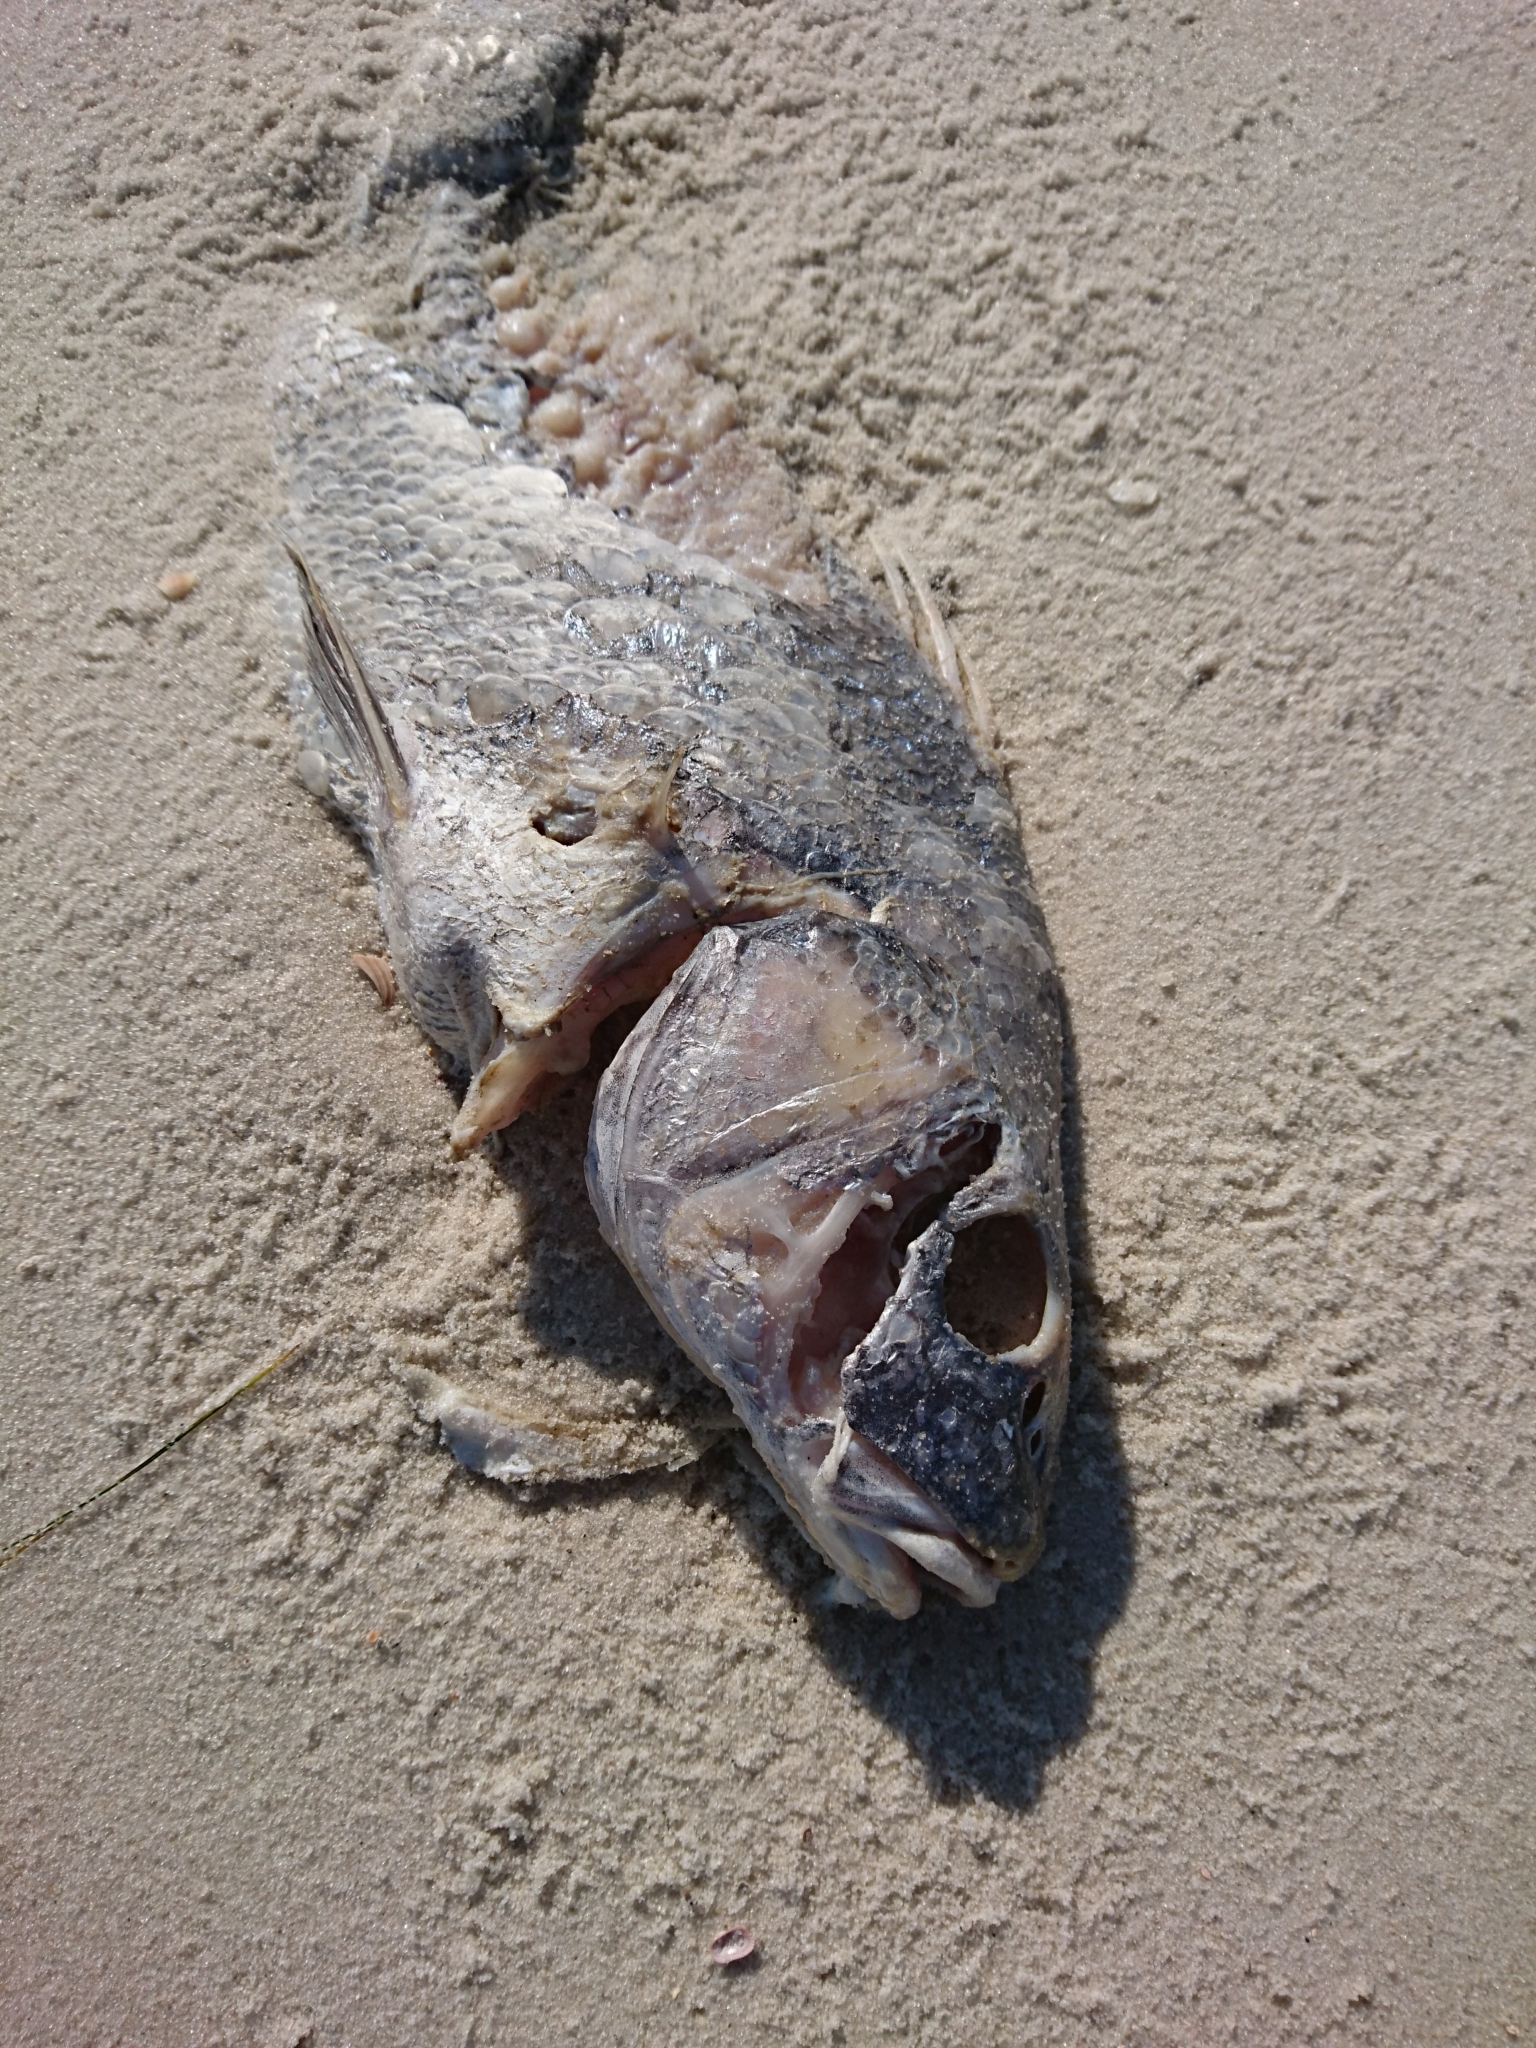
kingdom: Animalia
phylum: Chordata
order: Perciformes
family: Sciaenidae
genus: Sciaenops
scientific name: Sciaenops ocellatus
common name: Red drum
